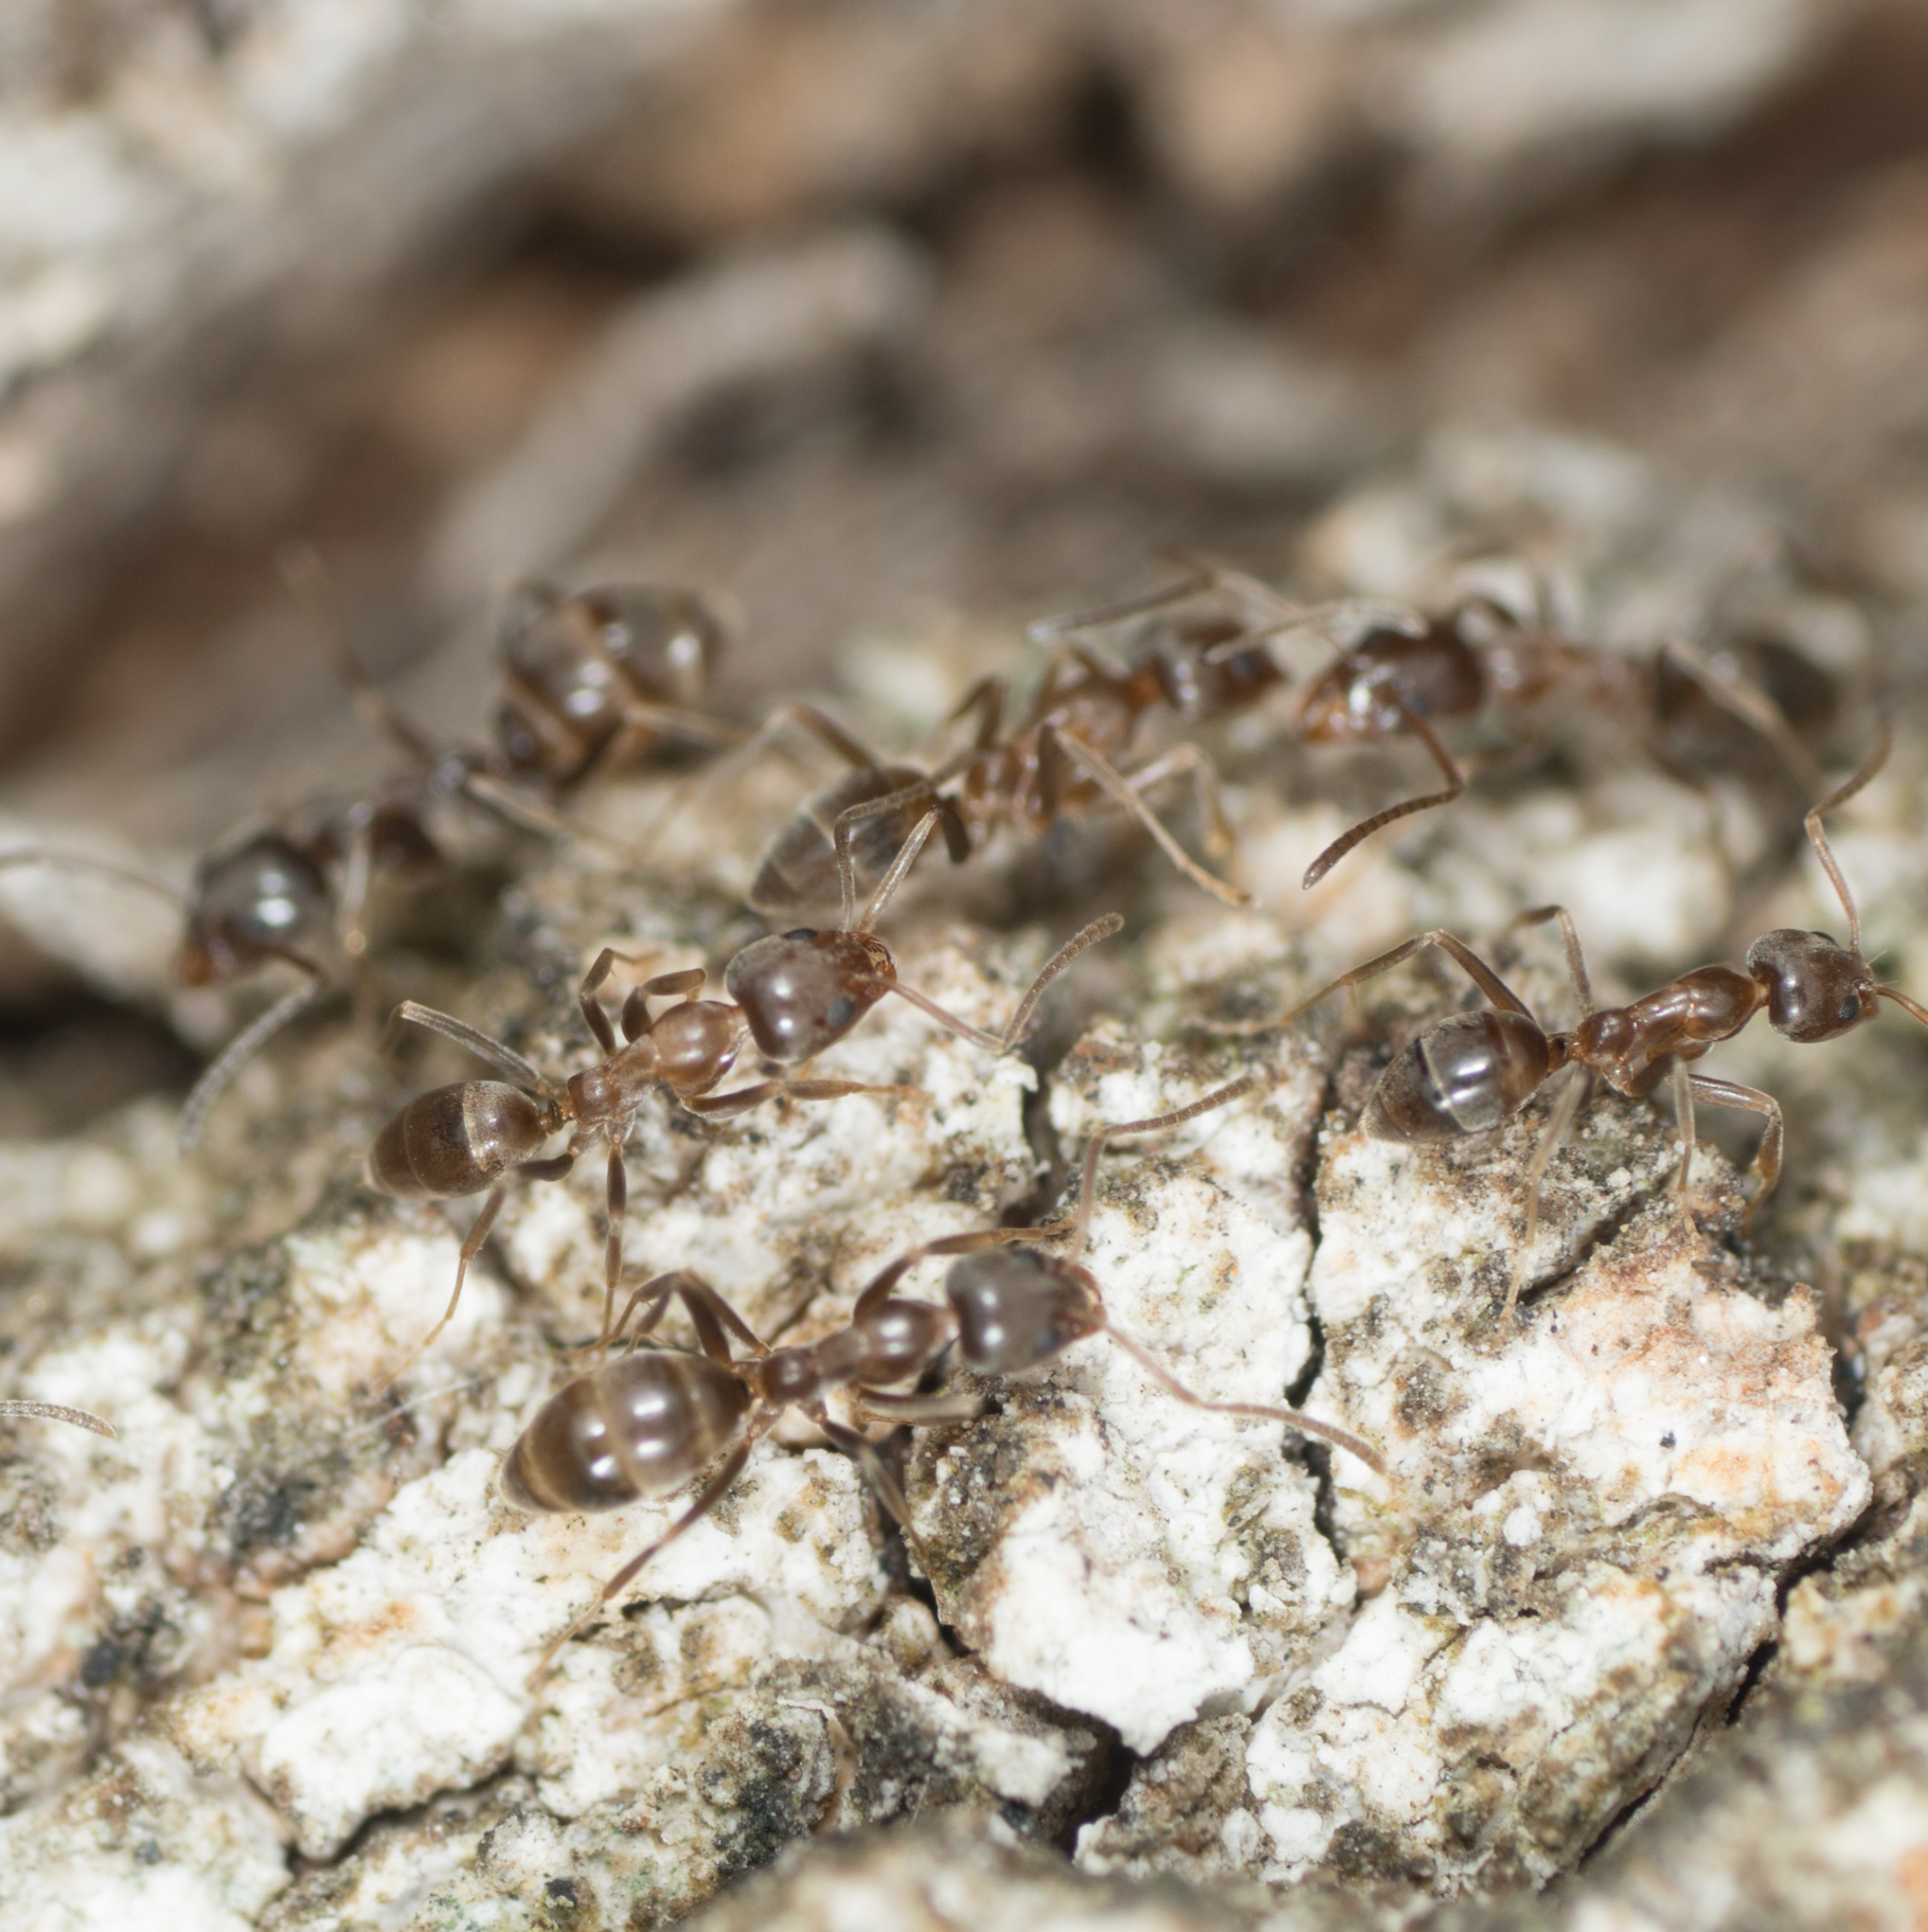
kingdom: Animalia
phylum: Arthropoda
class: Insecta
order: Hymenoptera
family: Formicidae
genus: Linepithema
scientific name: Linepithema humile
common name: Argentine ant
